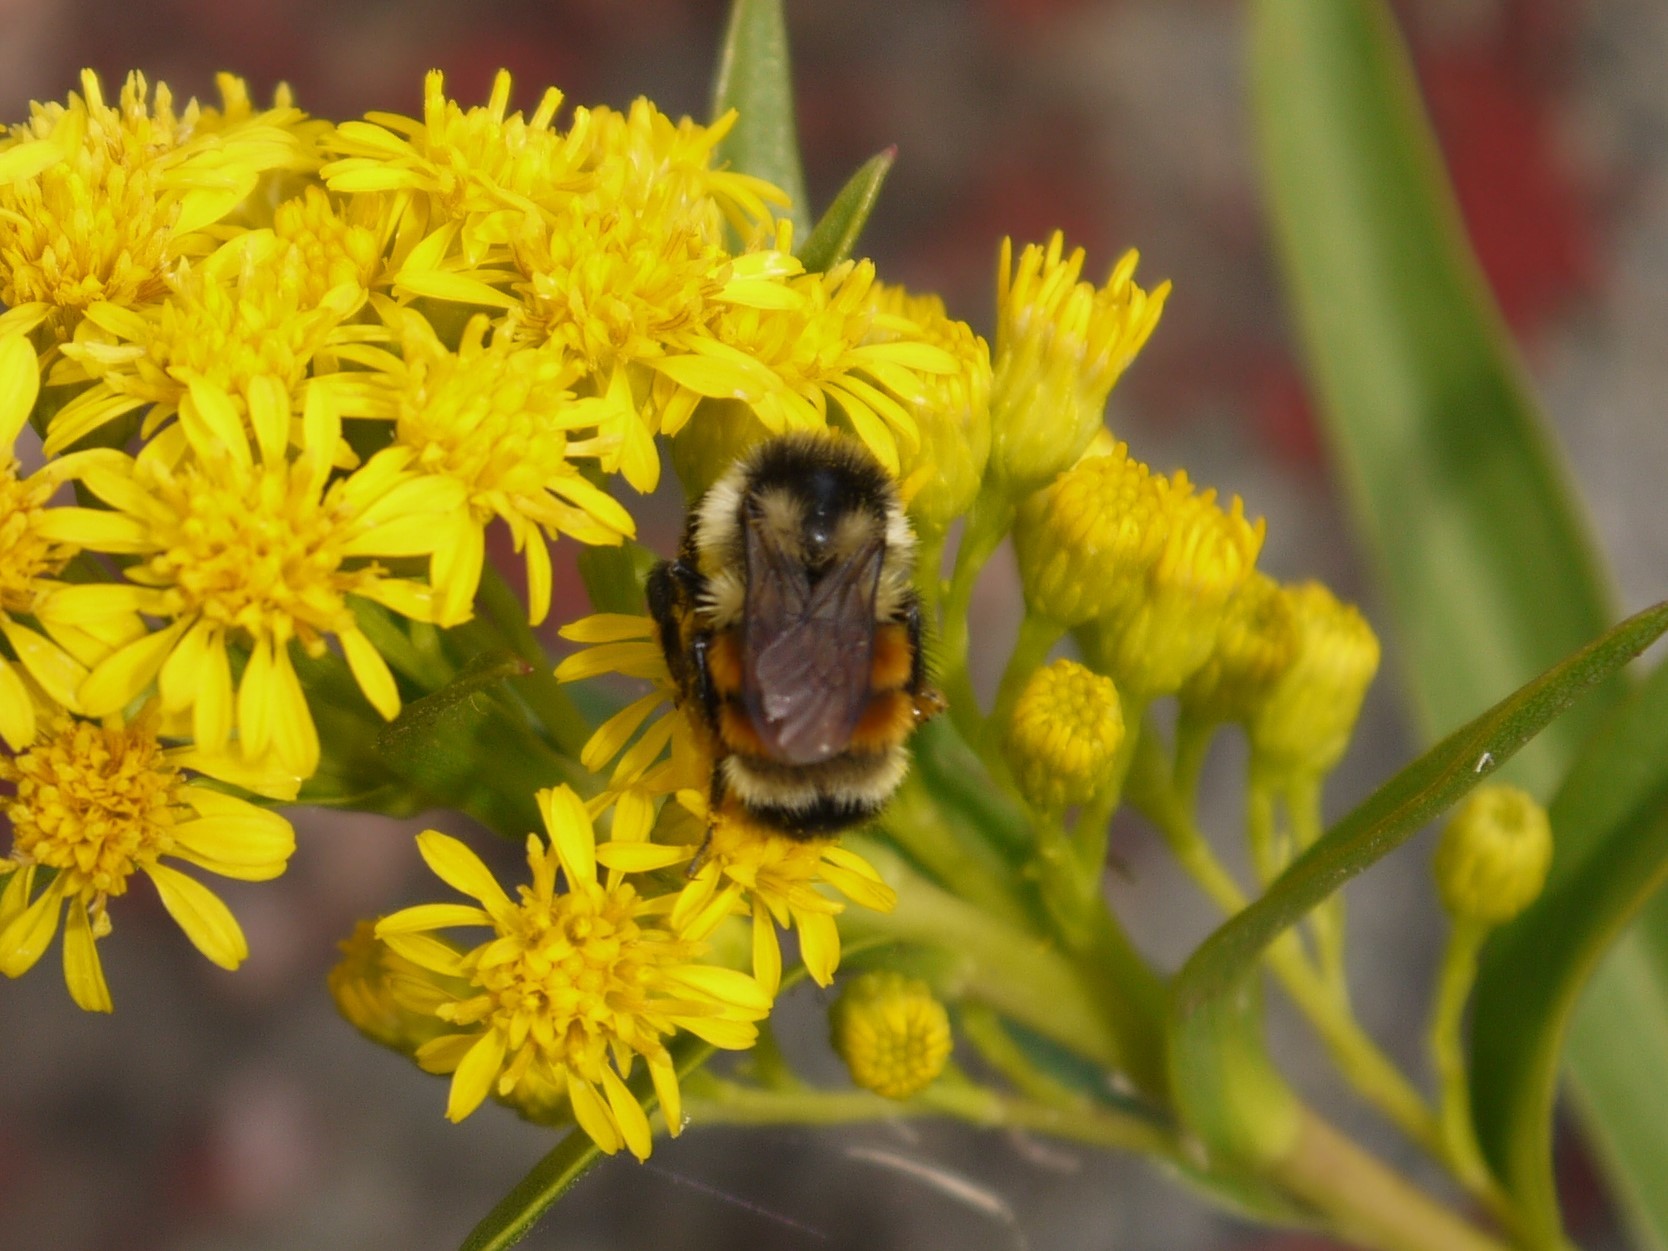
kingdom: Animalia
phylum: Arthropoda
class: Insecta
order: Hymenoptera
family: Apidae
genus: Bombus
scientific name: Bombus ternarius
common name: Tri-colored bumble bee
